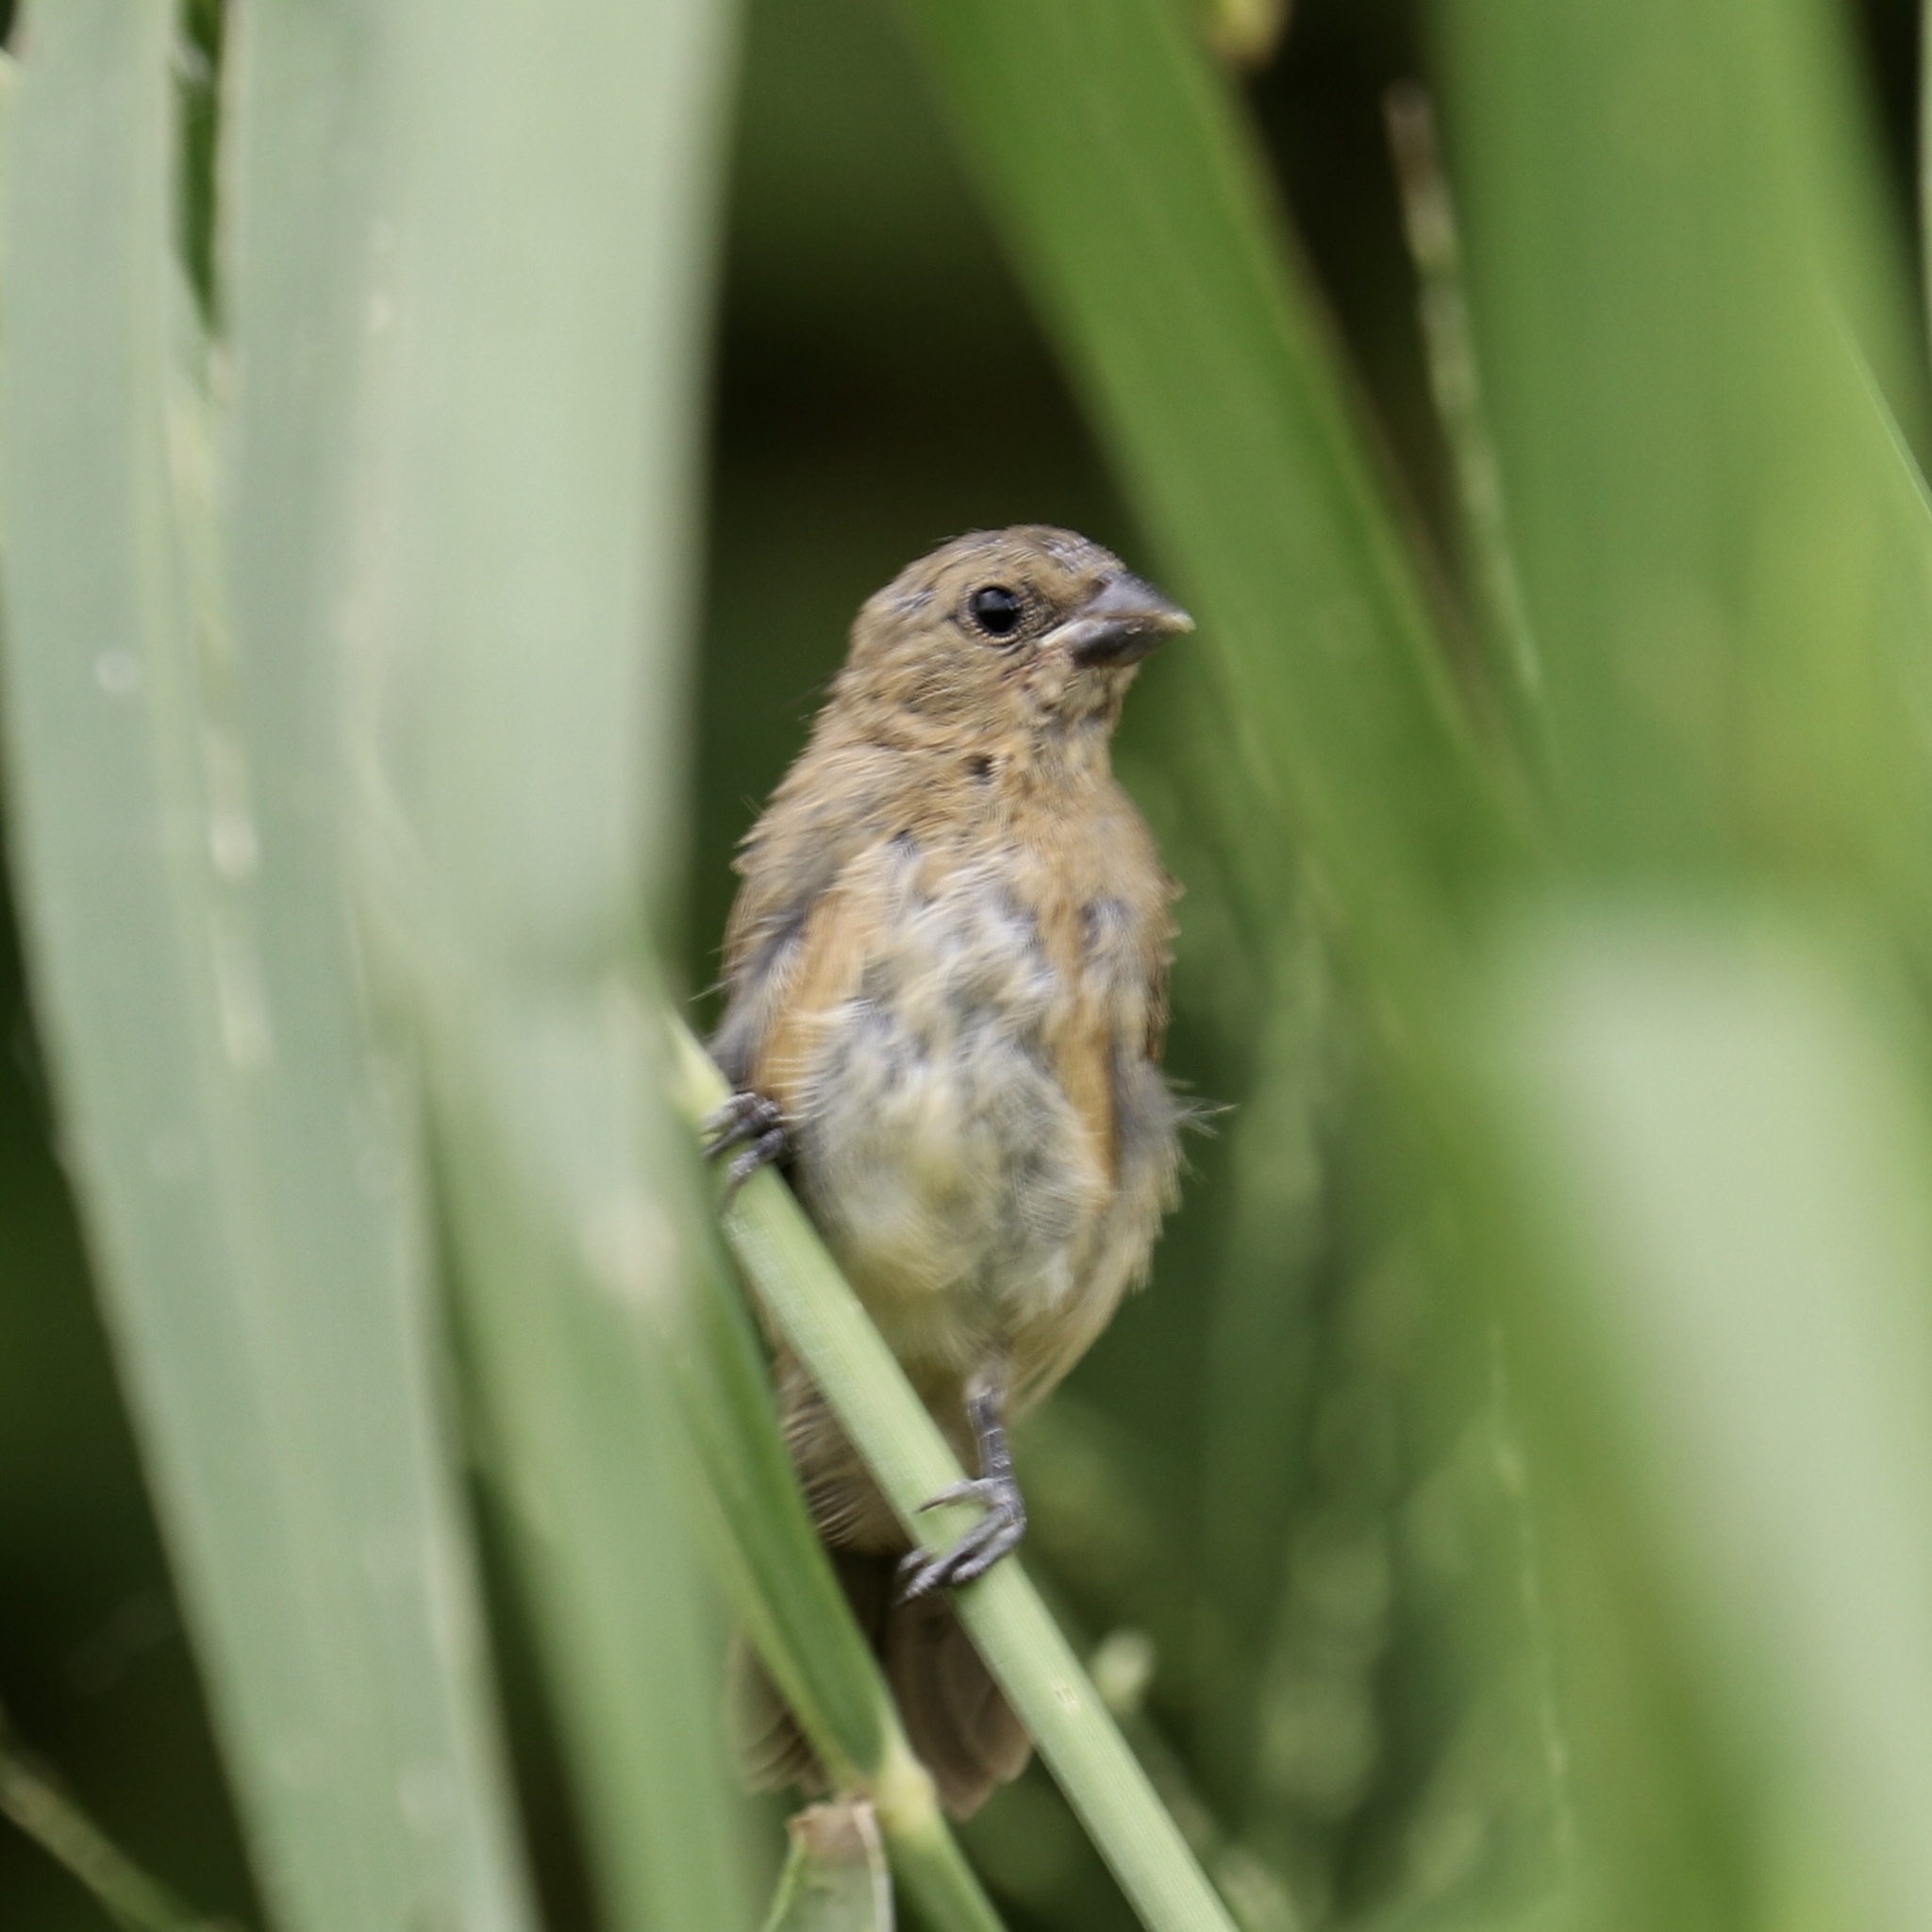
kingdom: Animalia
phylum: Chordata
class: Aves
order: Passeriformes
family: Thraupidae
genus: Sporophila
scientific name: Sporophila nigricollis
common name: Yellow-bellied seedeater
